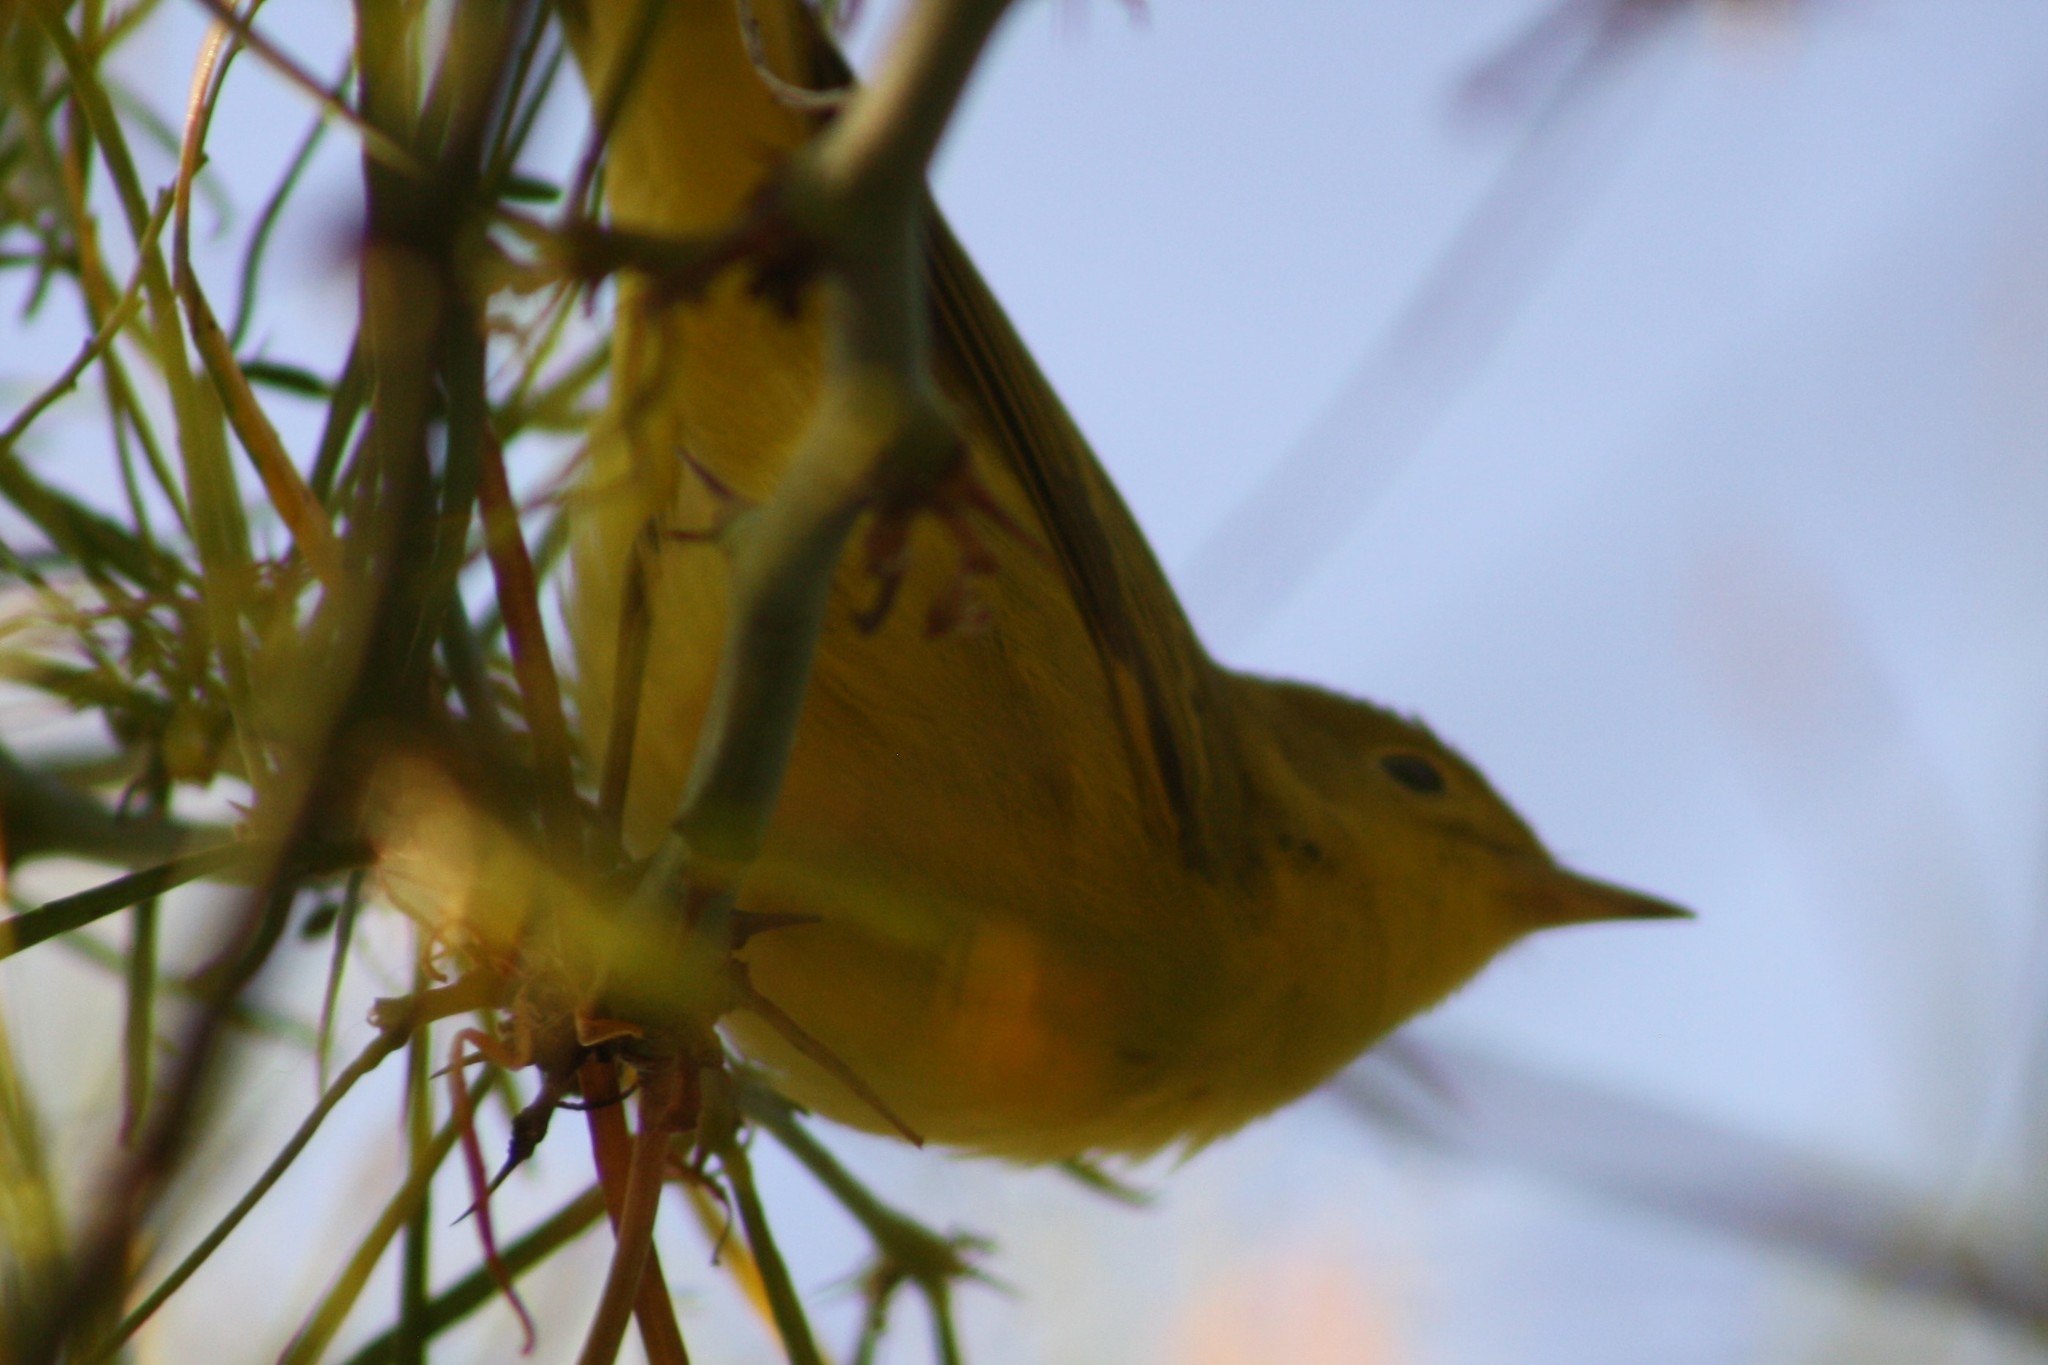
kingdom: Animalia
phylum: Chordata
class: Aves
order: Passeriformes
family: Parulidae
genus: Setophaga
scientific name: Setophaga petechia
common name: Yellow warbler
